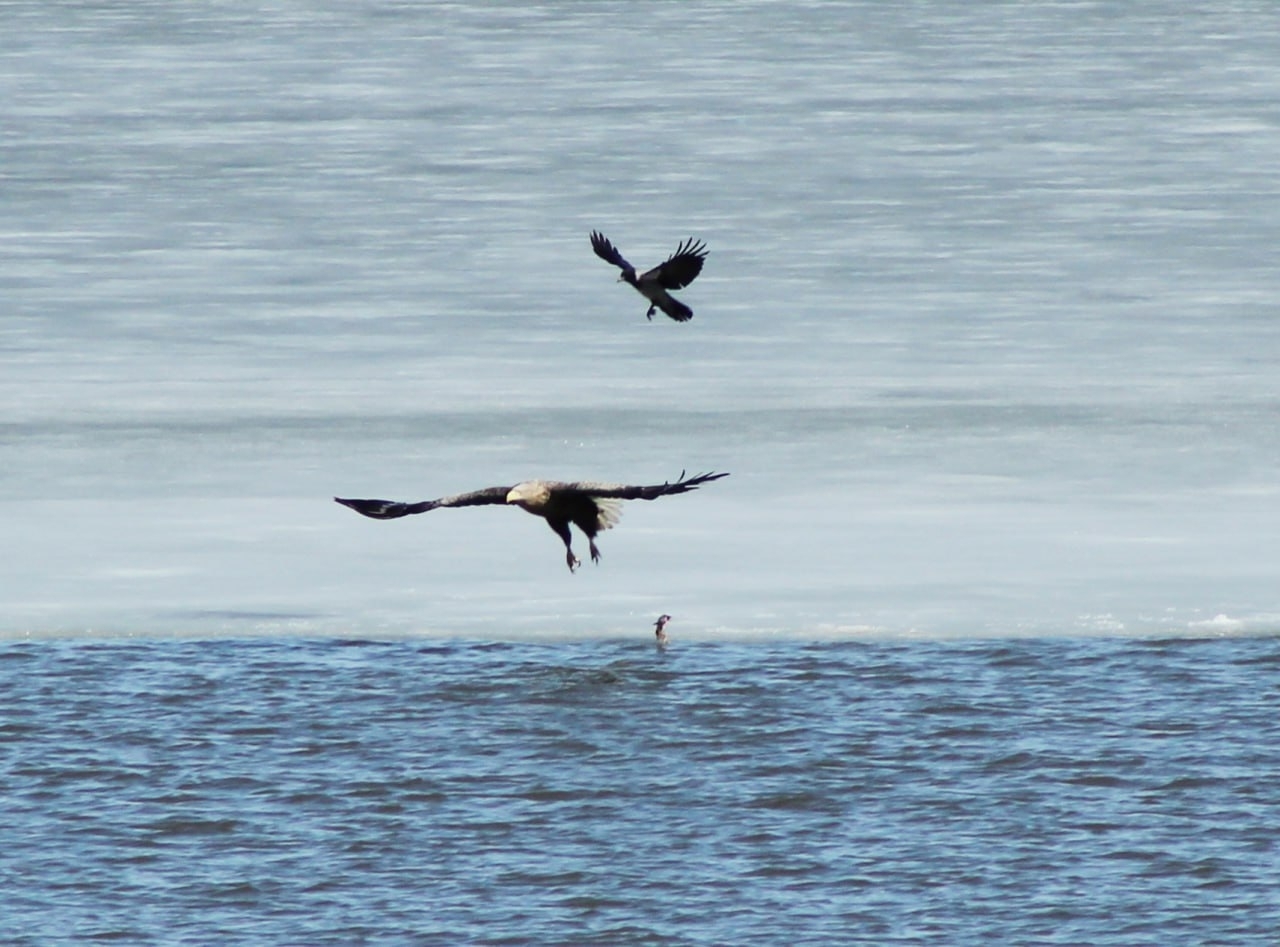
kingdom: Animalia
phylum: Chordata
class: Aves
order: Accipitriformes
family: Accipitridae
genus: Haliaeetus
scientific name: Haliaeetus albicilla
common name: White-tailed eagle
